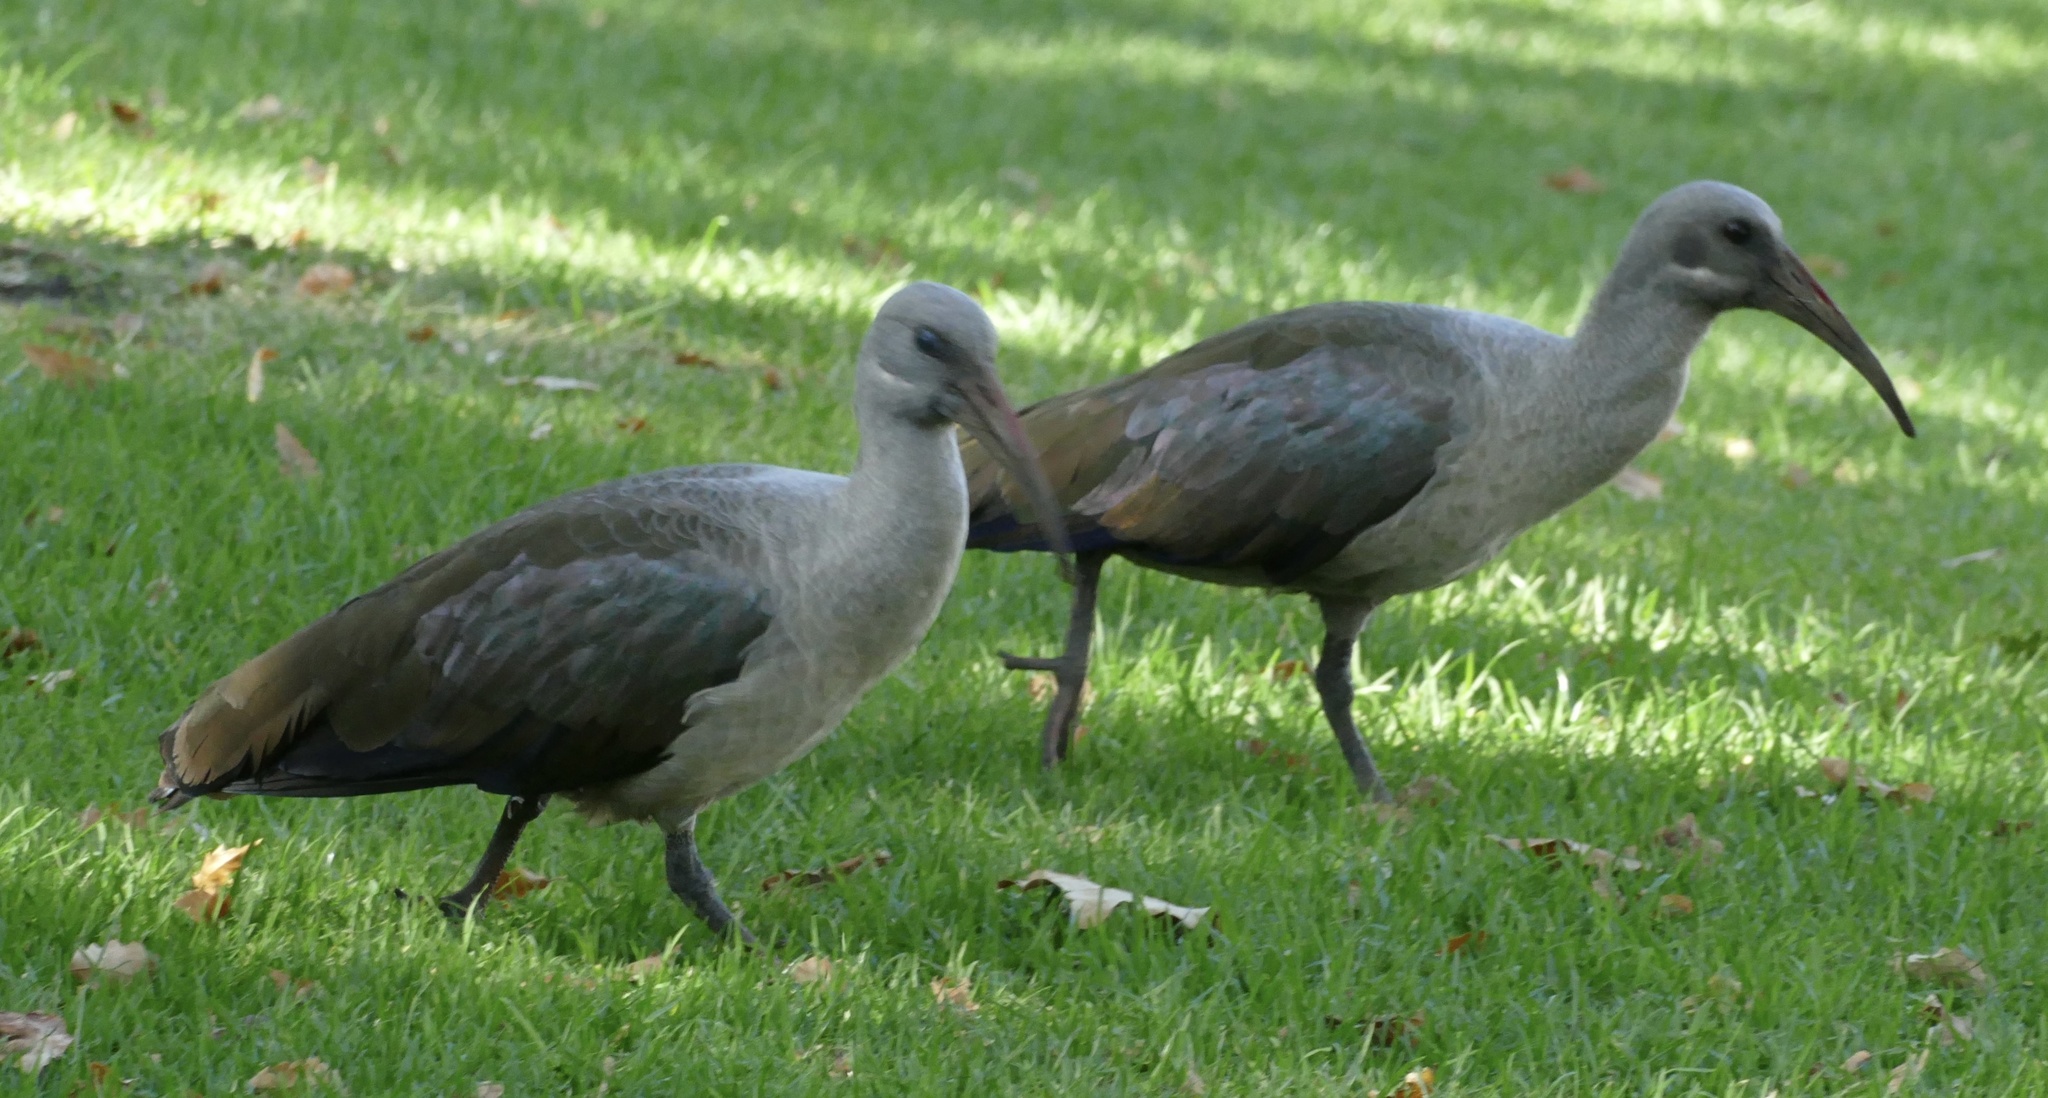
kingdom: Animalia
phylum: Chordata
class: Aves
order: Pelecaniformes
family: Threskiornithidae
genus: Bostrychia
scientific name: Bostrychia hagedash
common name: Hadada ibis
